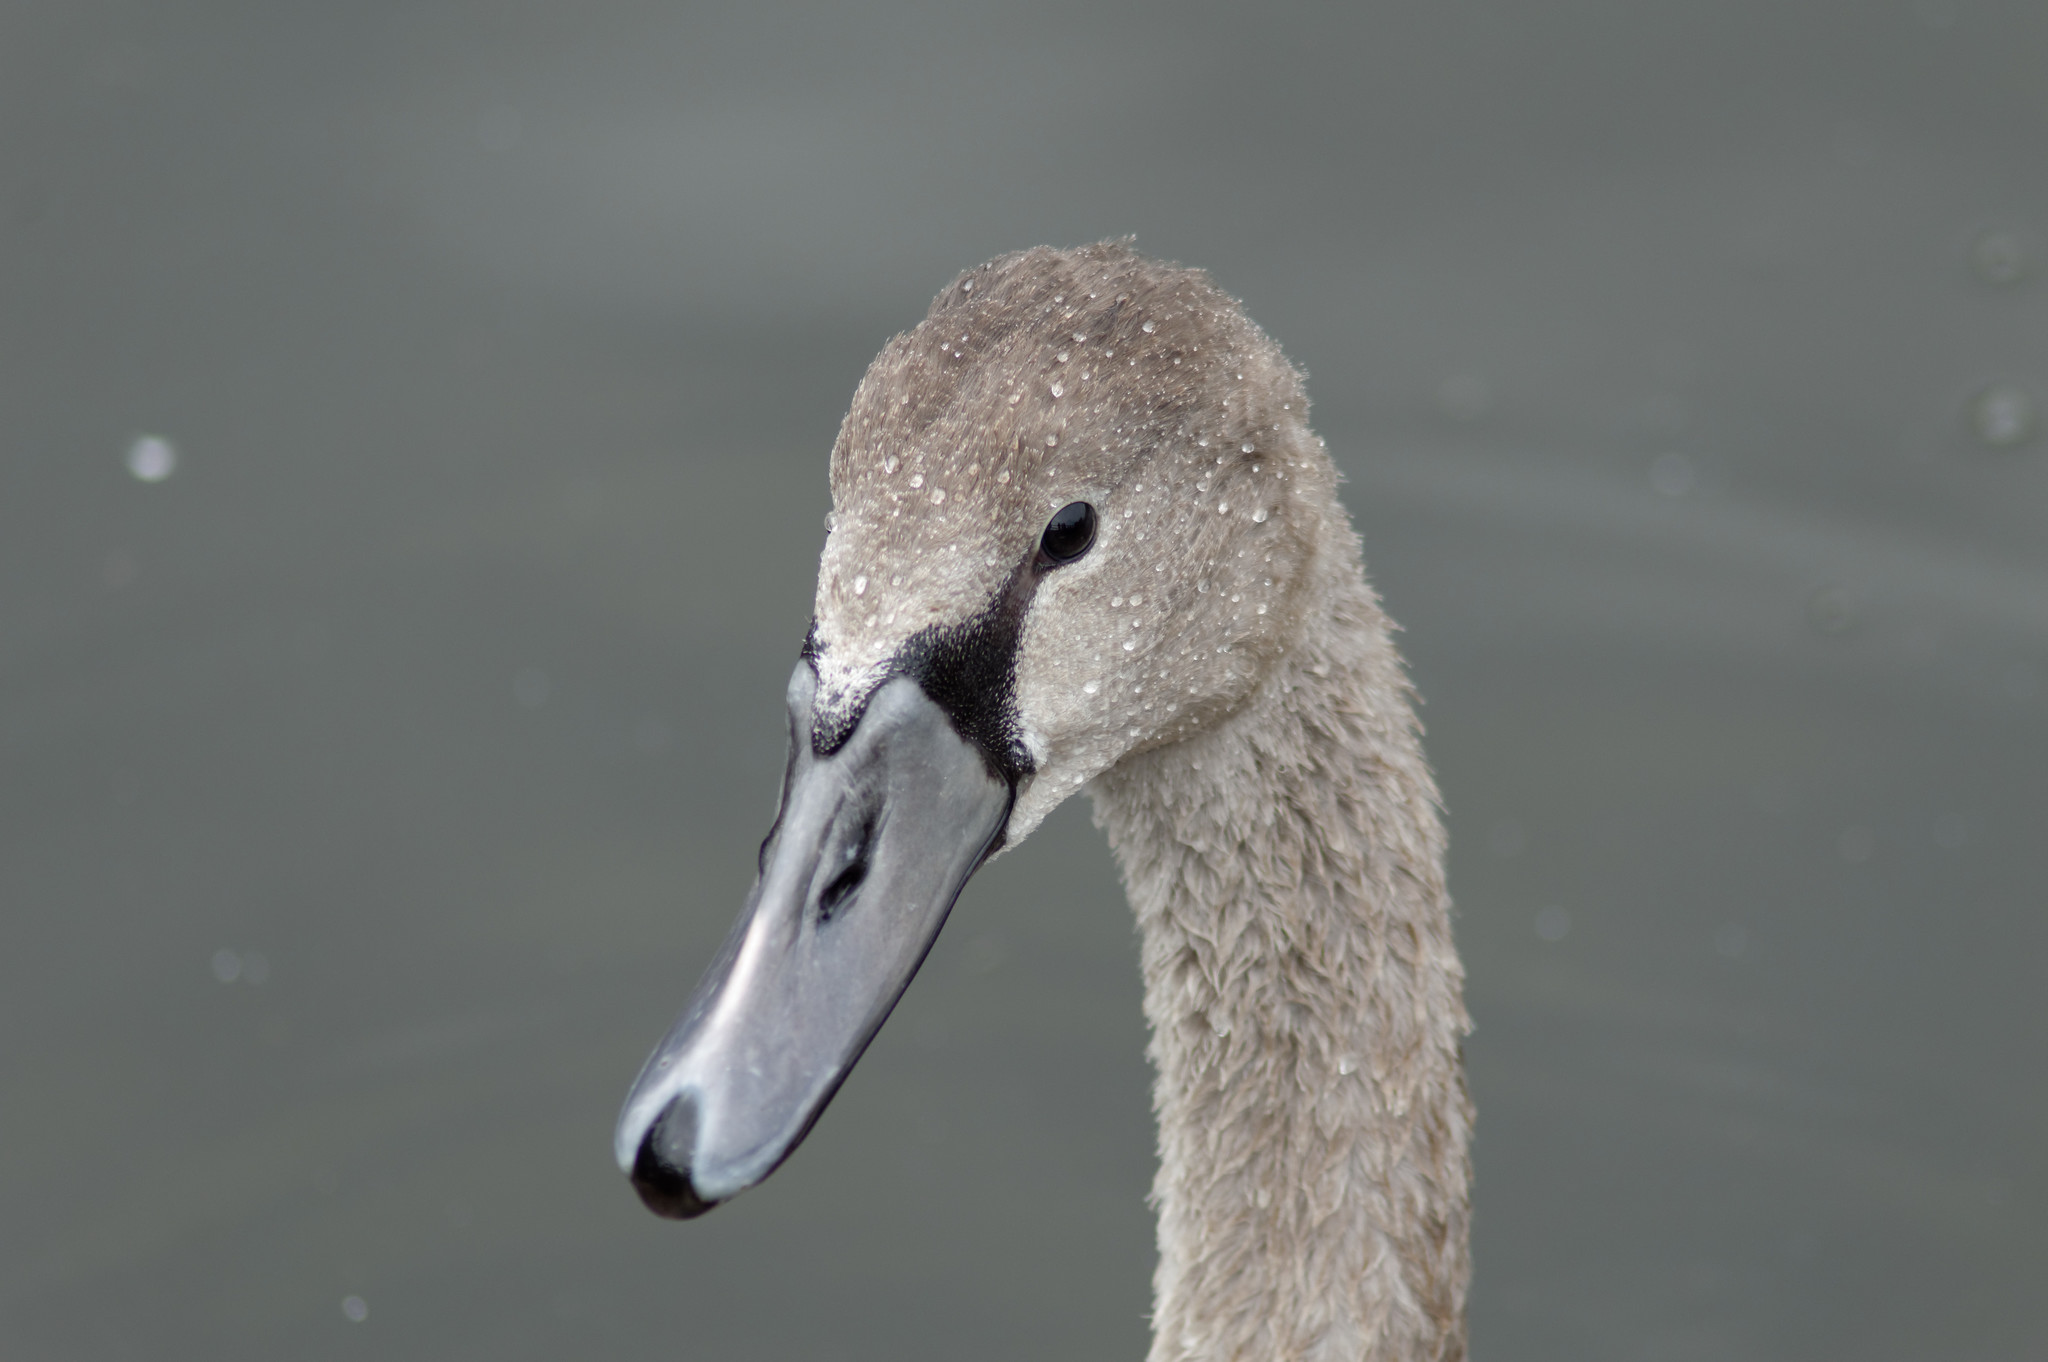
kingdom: Animalia
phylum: Chordata
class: Aves
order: Anseriformes
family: Anatidae
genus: Cygnus
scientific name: Cygnus olor
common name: Mute swan
